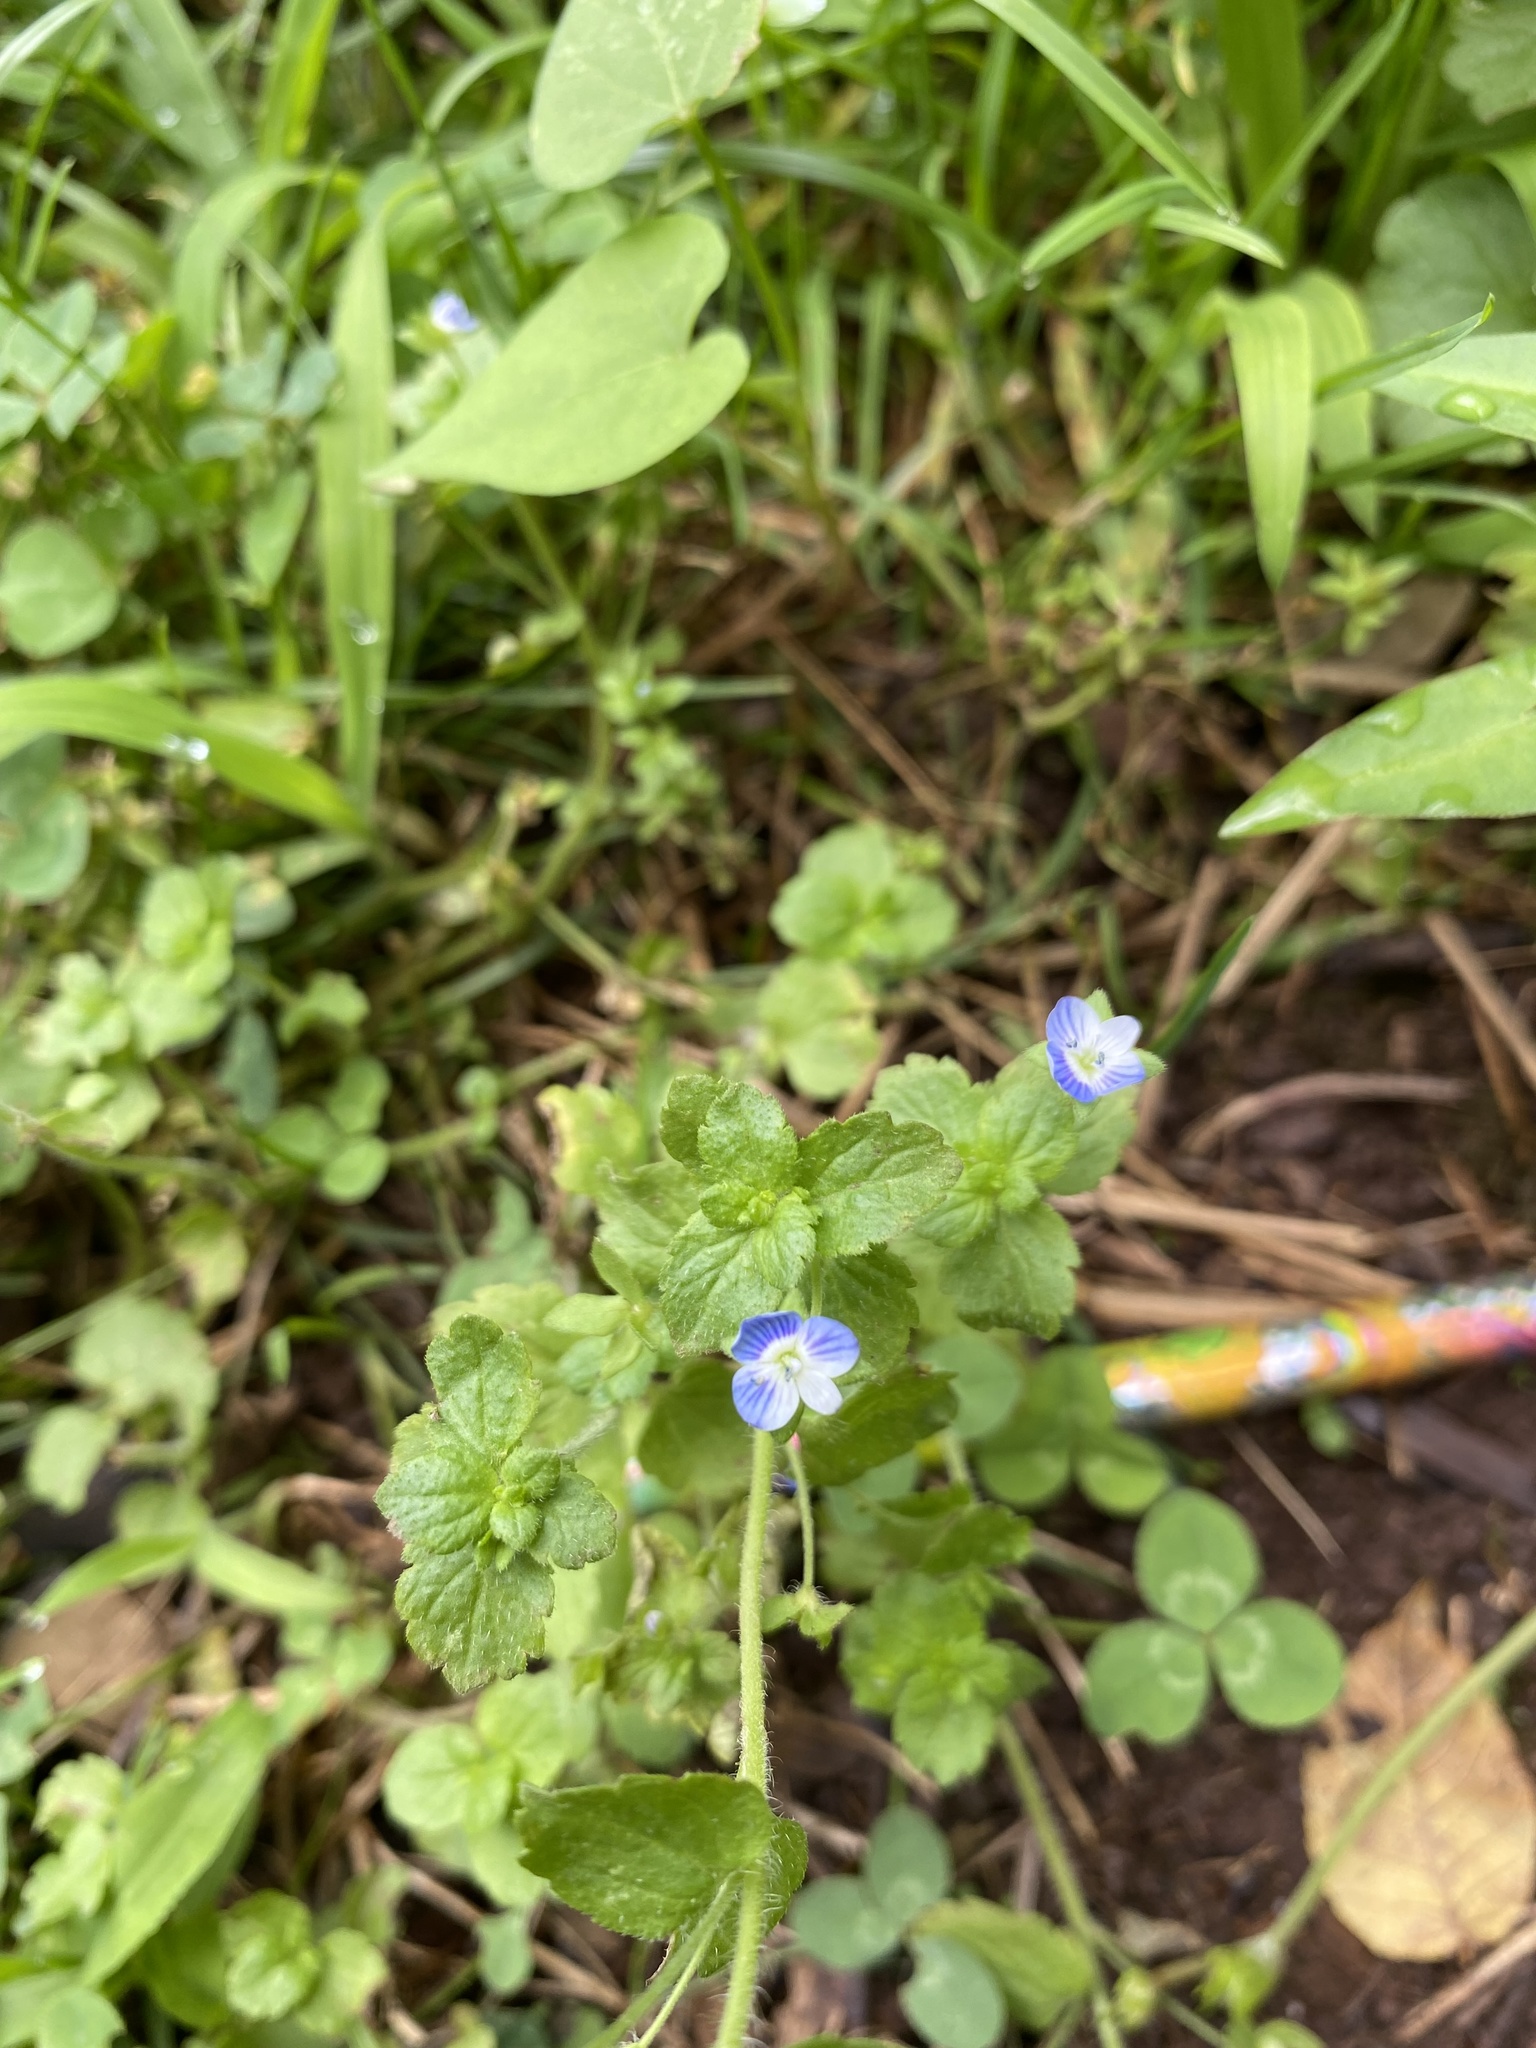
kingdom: Plantae
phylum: Tracheophyta
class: Magnoliopsida
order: Lamiales
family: Plantaginaceae
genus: Veronica
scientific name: Veronica persica
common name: Common field-speedwell
